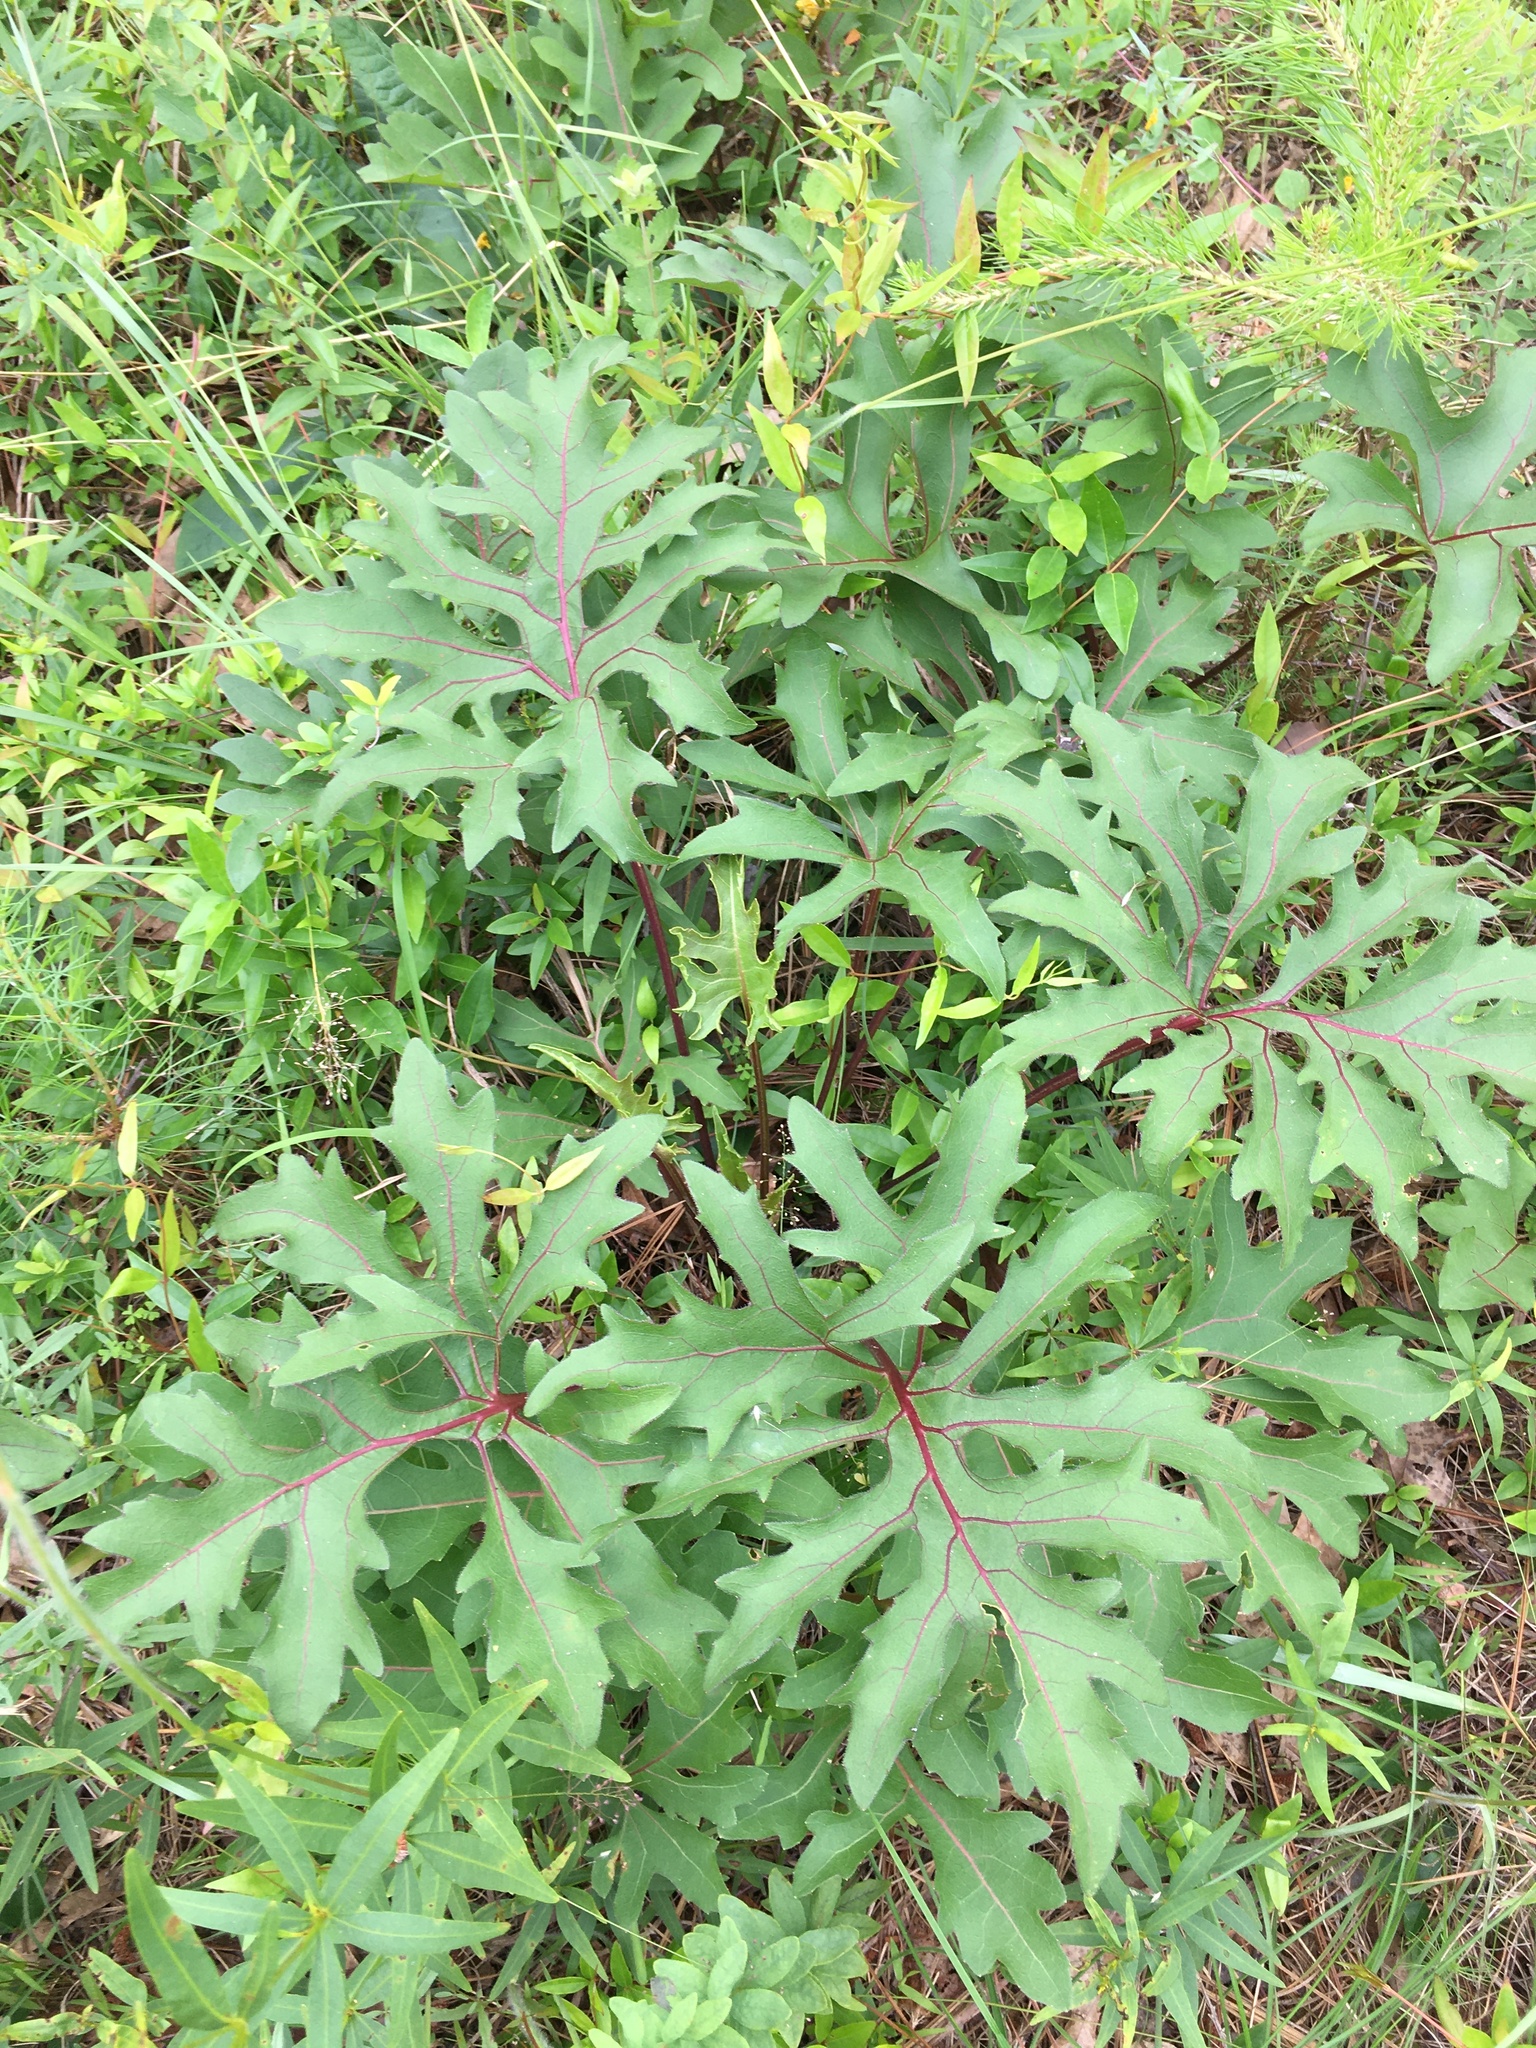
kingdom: Plantae
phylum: Tracheophyta
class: Magnoliopsida
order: Asterales
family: Asteraceae
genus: Silphium
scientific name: Silphium compositum
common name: Lesser basal-leaf rosinweed
